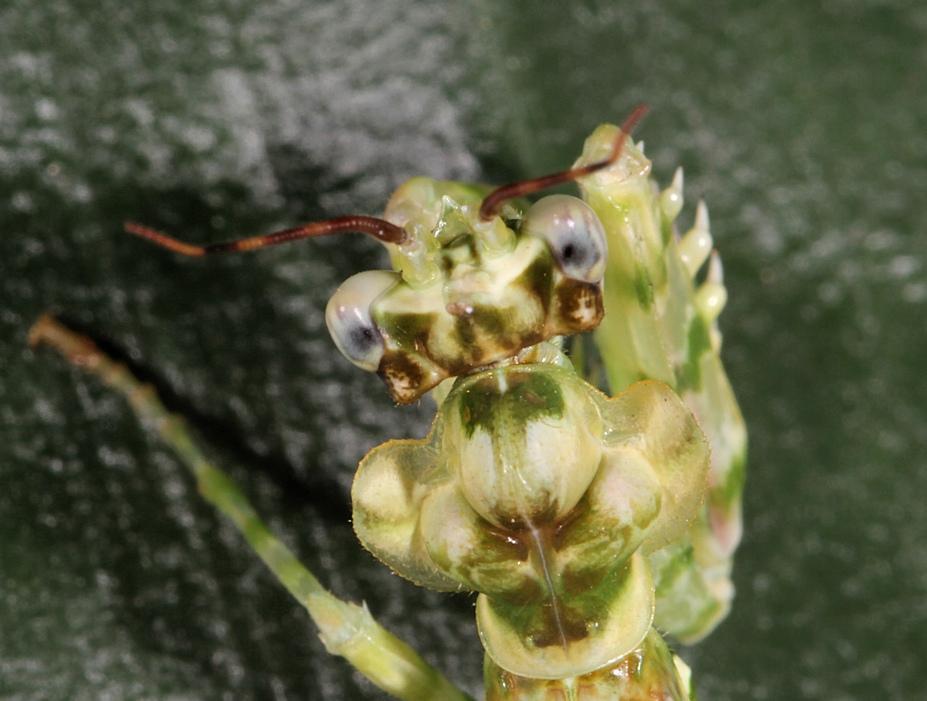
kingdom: Animalia
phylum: Arthropoda
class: Insecta
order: Mantodea
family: Hymenopodidae
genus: Pseudocreobotra
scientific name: Pseudocreobotra wahlbergi
